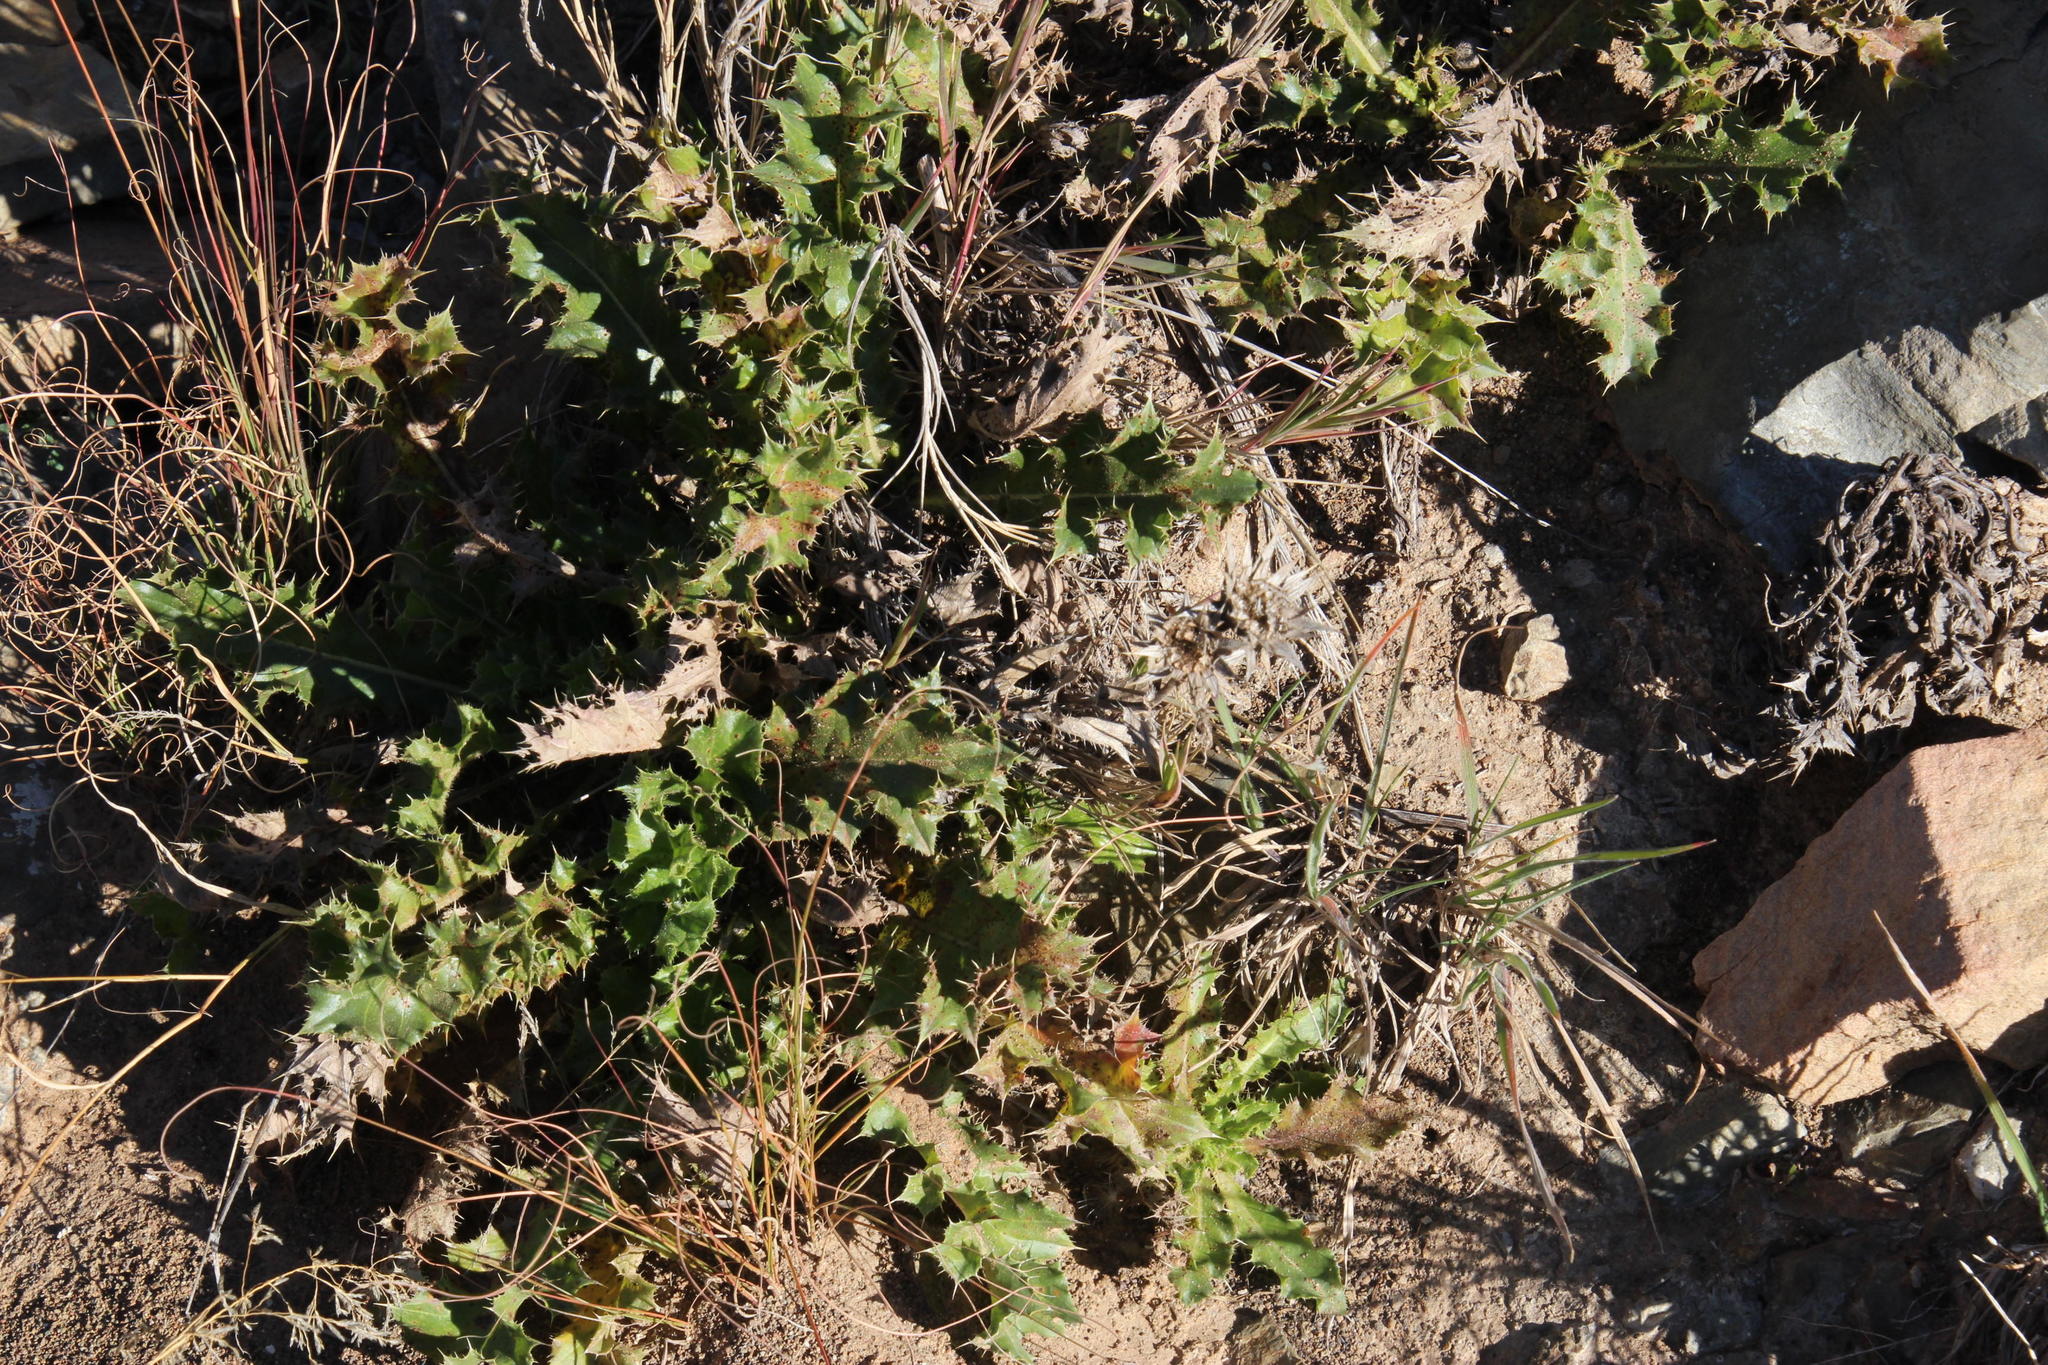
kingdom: Plantae
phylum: Tracheophyta
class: Magnoliopsida
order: Asterales
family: Asteraceae
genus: Berkheya
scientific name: Berkheya carlinifolia
